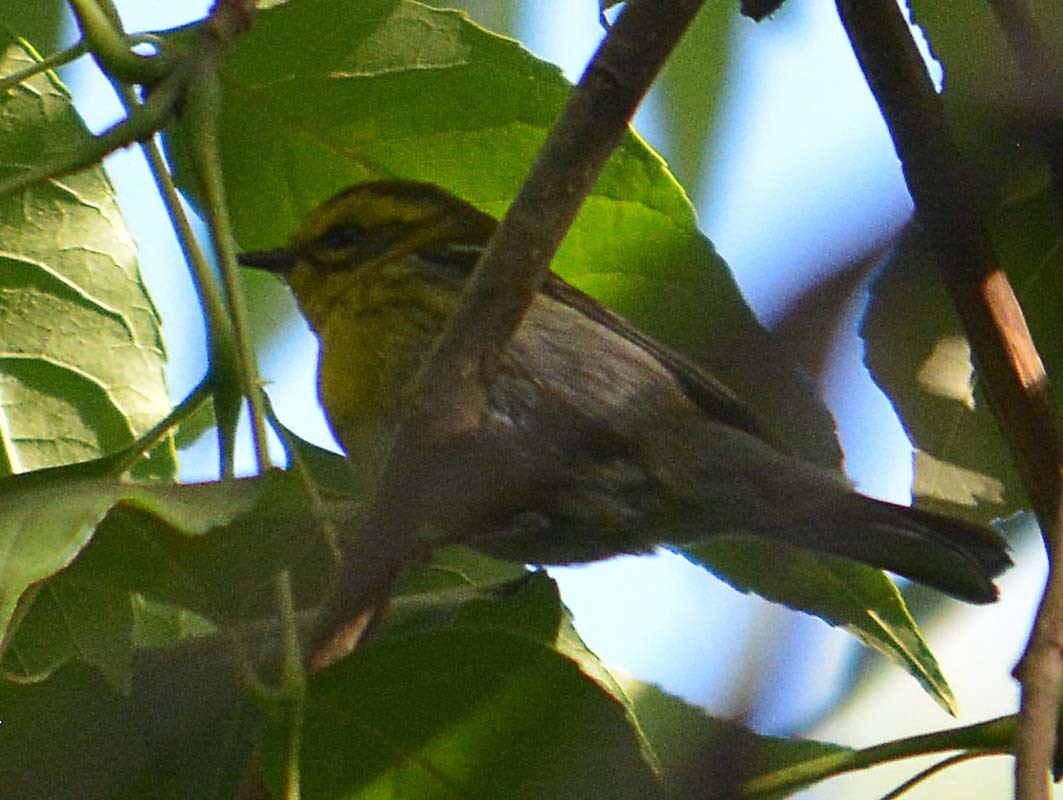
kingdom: Animalia
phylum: Chordata
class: Aves
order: Passeriformes
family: Parulidae
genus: Setophaga
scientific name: Setophaga townsendi
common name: Townsend's warbler
